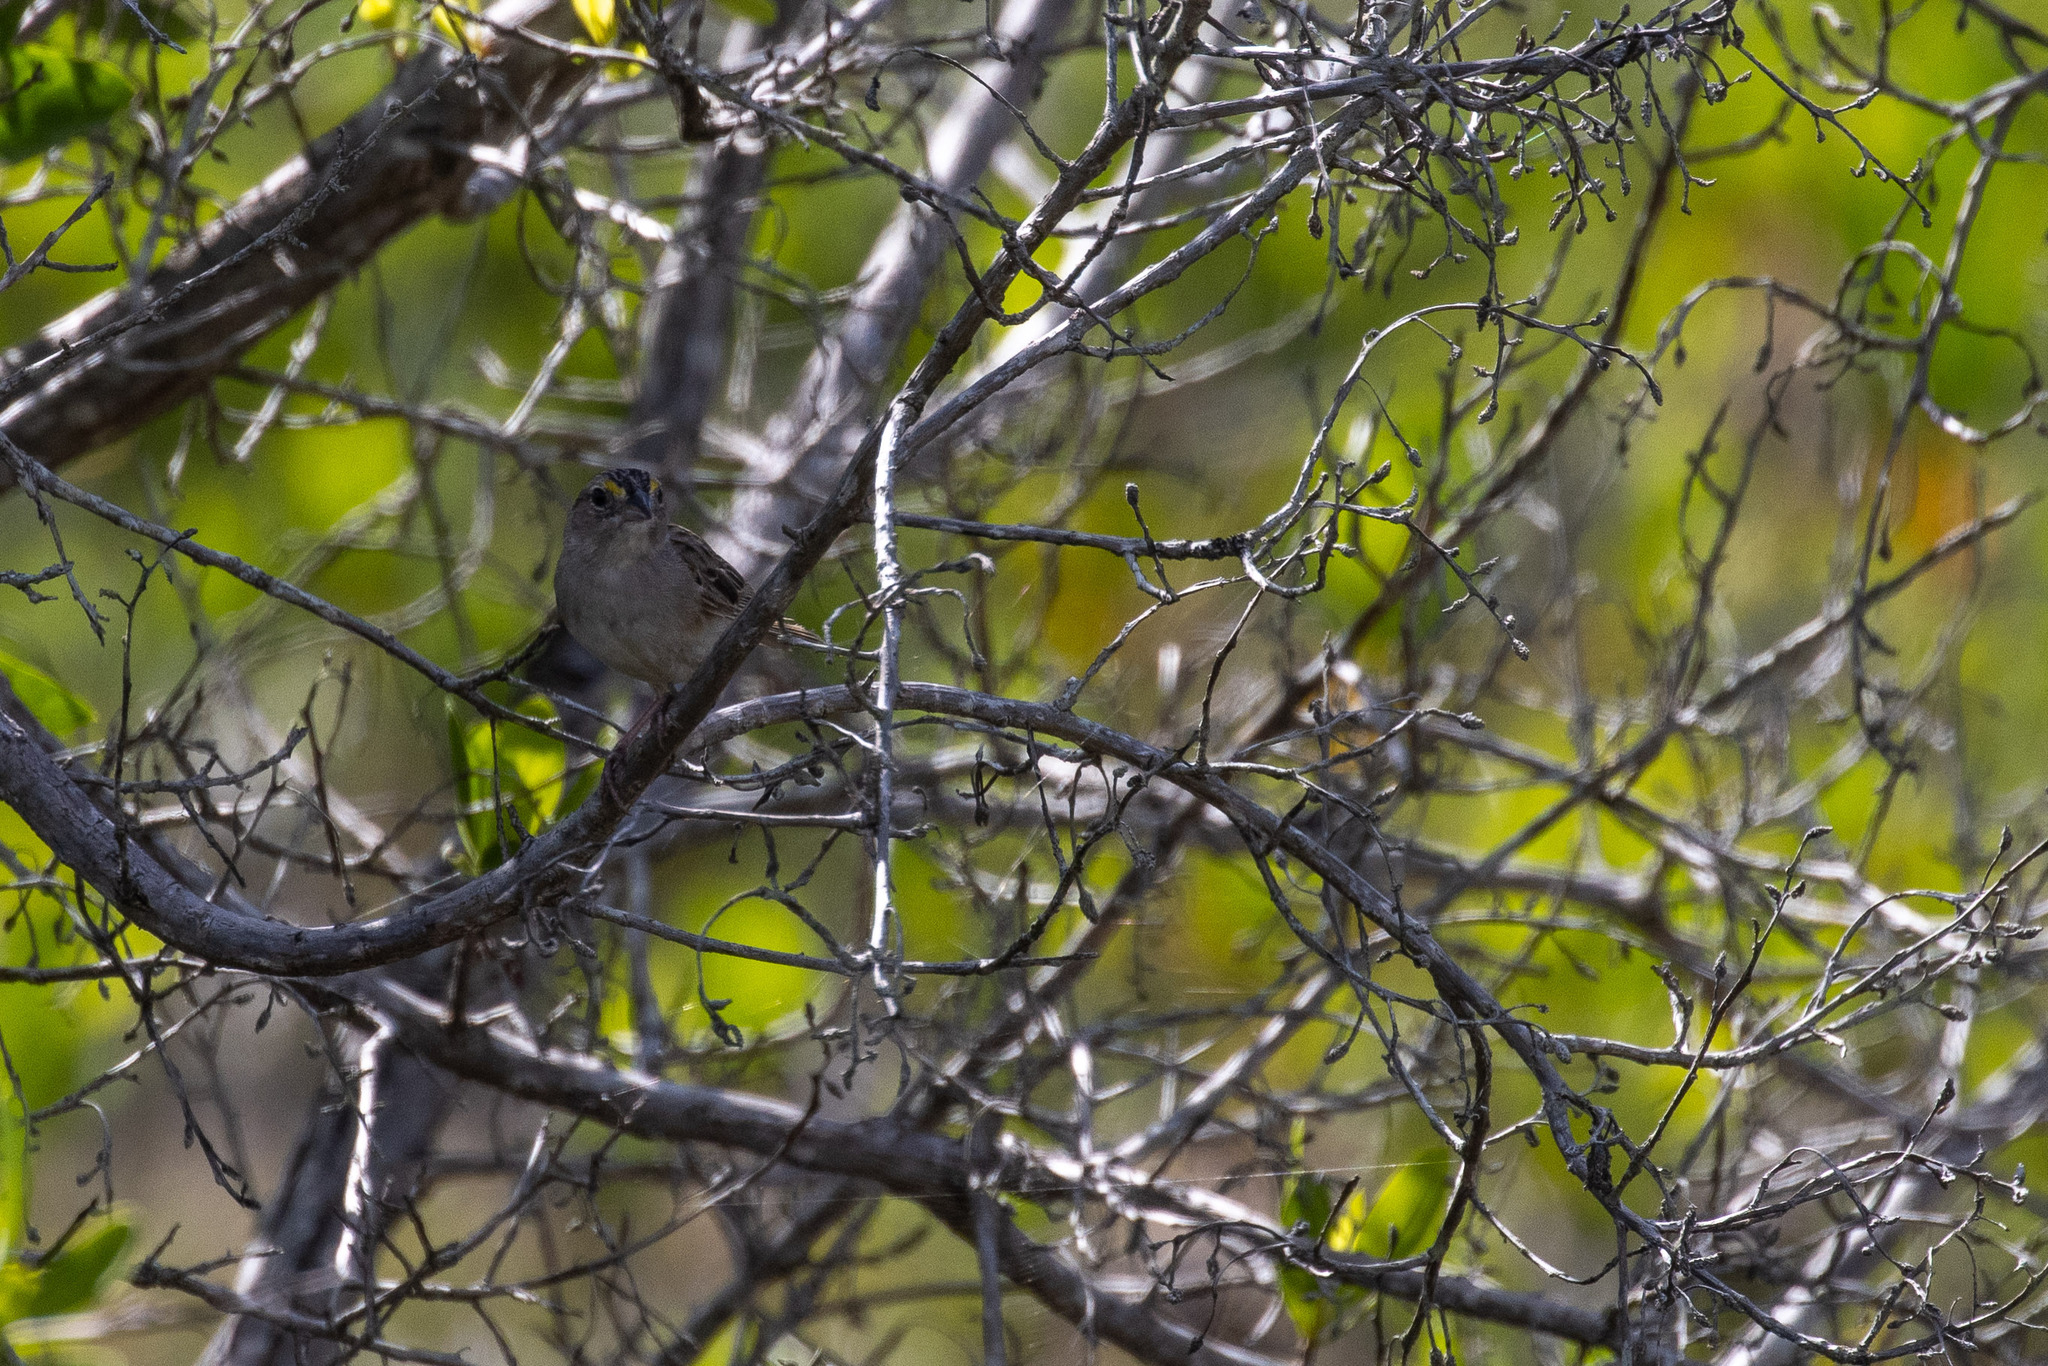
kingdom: Animalia
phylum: Chordata
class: Aves
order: Passeriformes
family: Passerellidae
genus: Ammodramus
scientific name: Ammodramus humeralis
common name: Grassland sparrow
